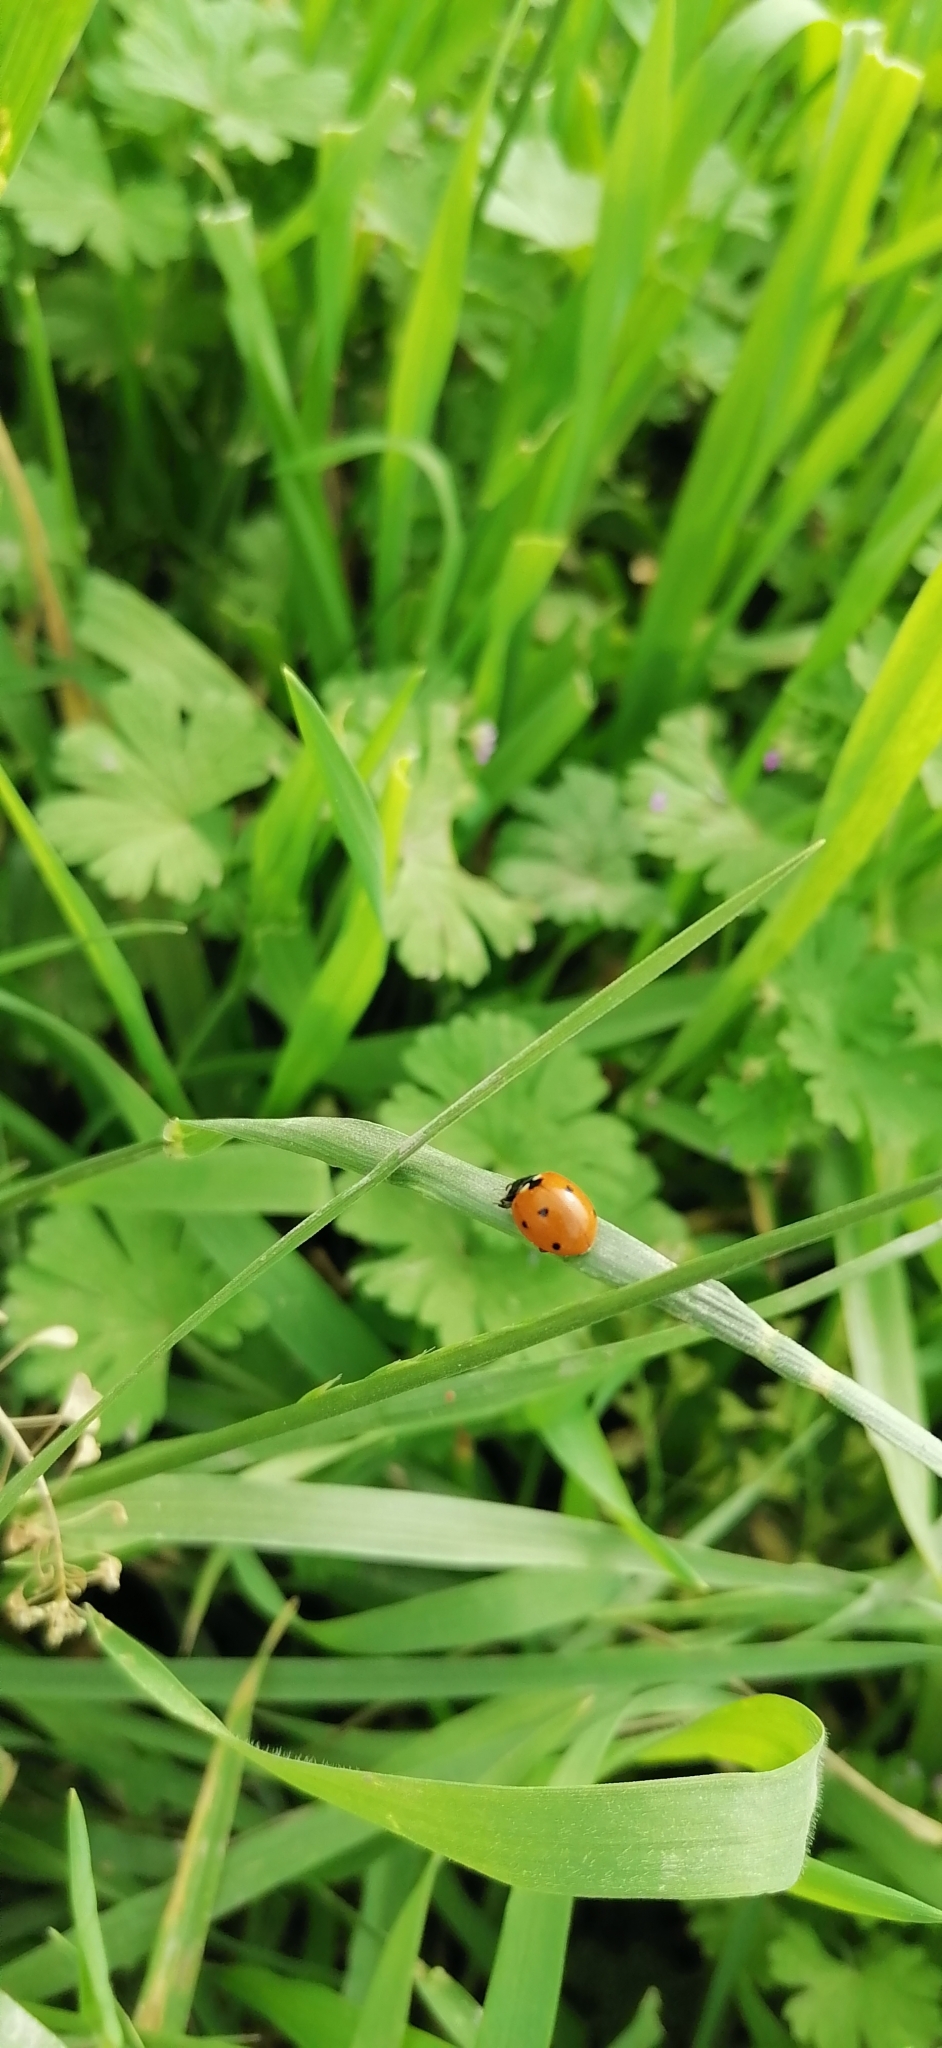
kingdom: Animalia
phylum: Arthropoda
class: Insecta
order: Coleoptera
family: Coccinellidae
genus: Coccinella
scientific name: Coccinella septempunctata
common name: Sevenspotted lady beetle
